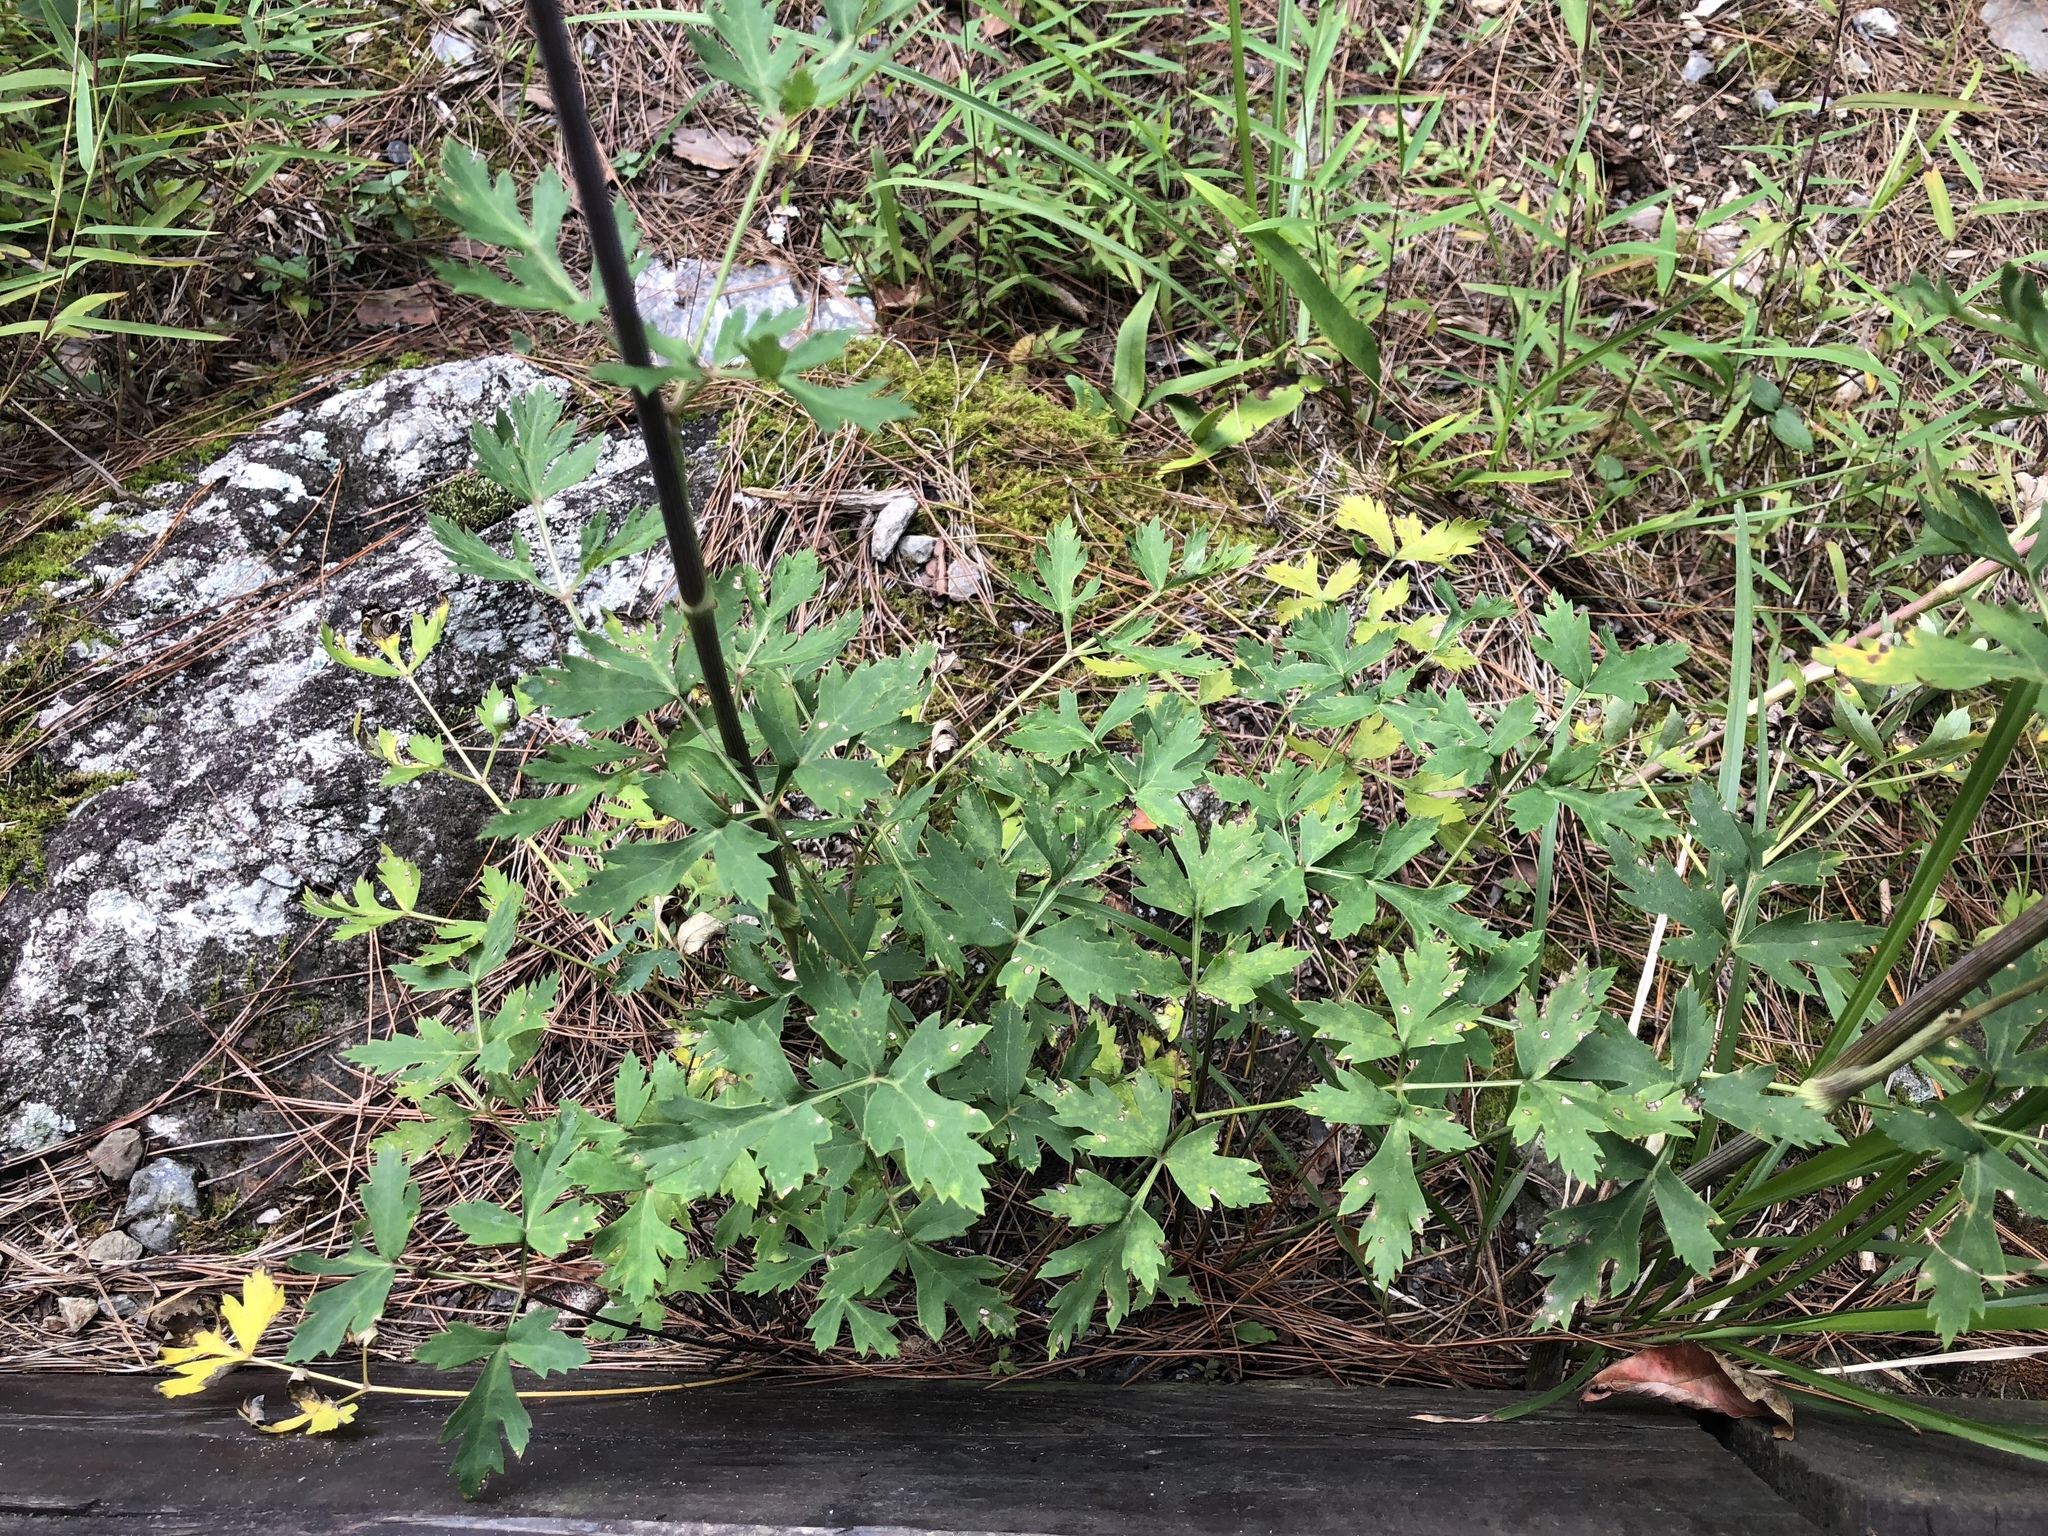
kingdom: Plantae
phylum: Tracheophyta
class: Magnoliopsida
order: Apiales
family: Apiaceae
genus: Kitagawia
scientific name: Kitagawia formosana
